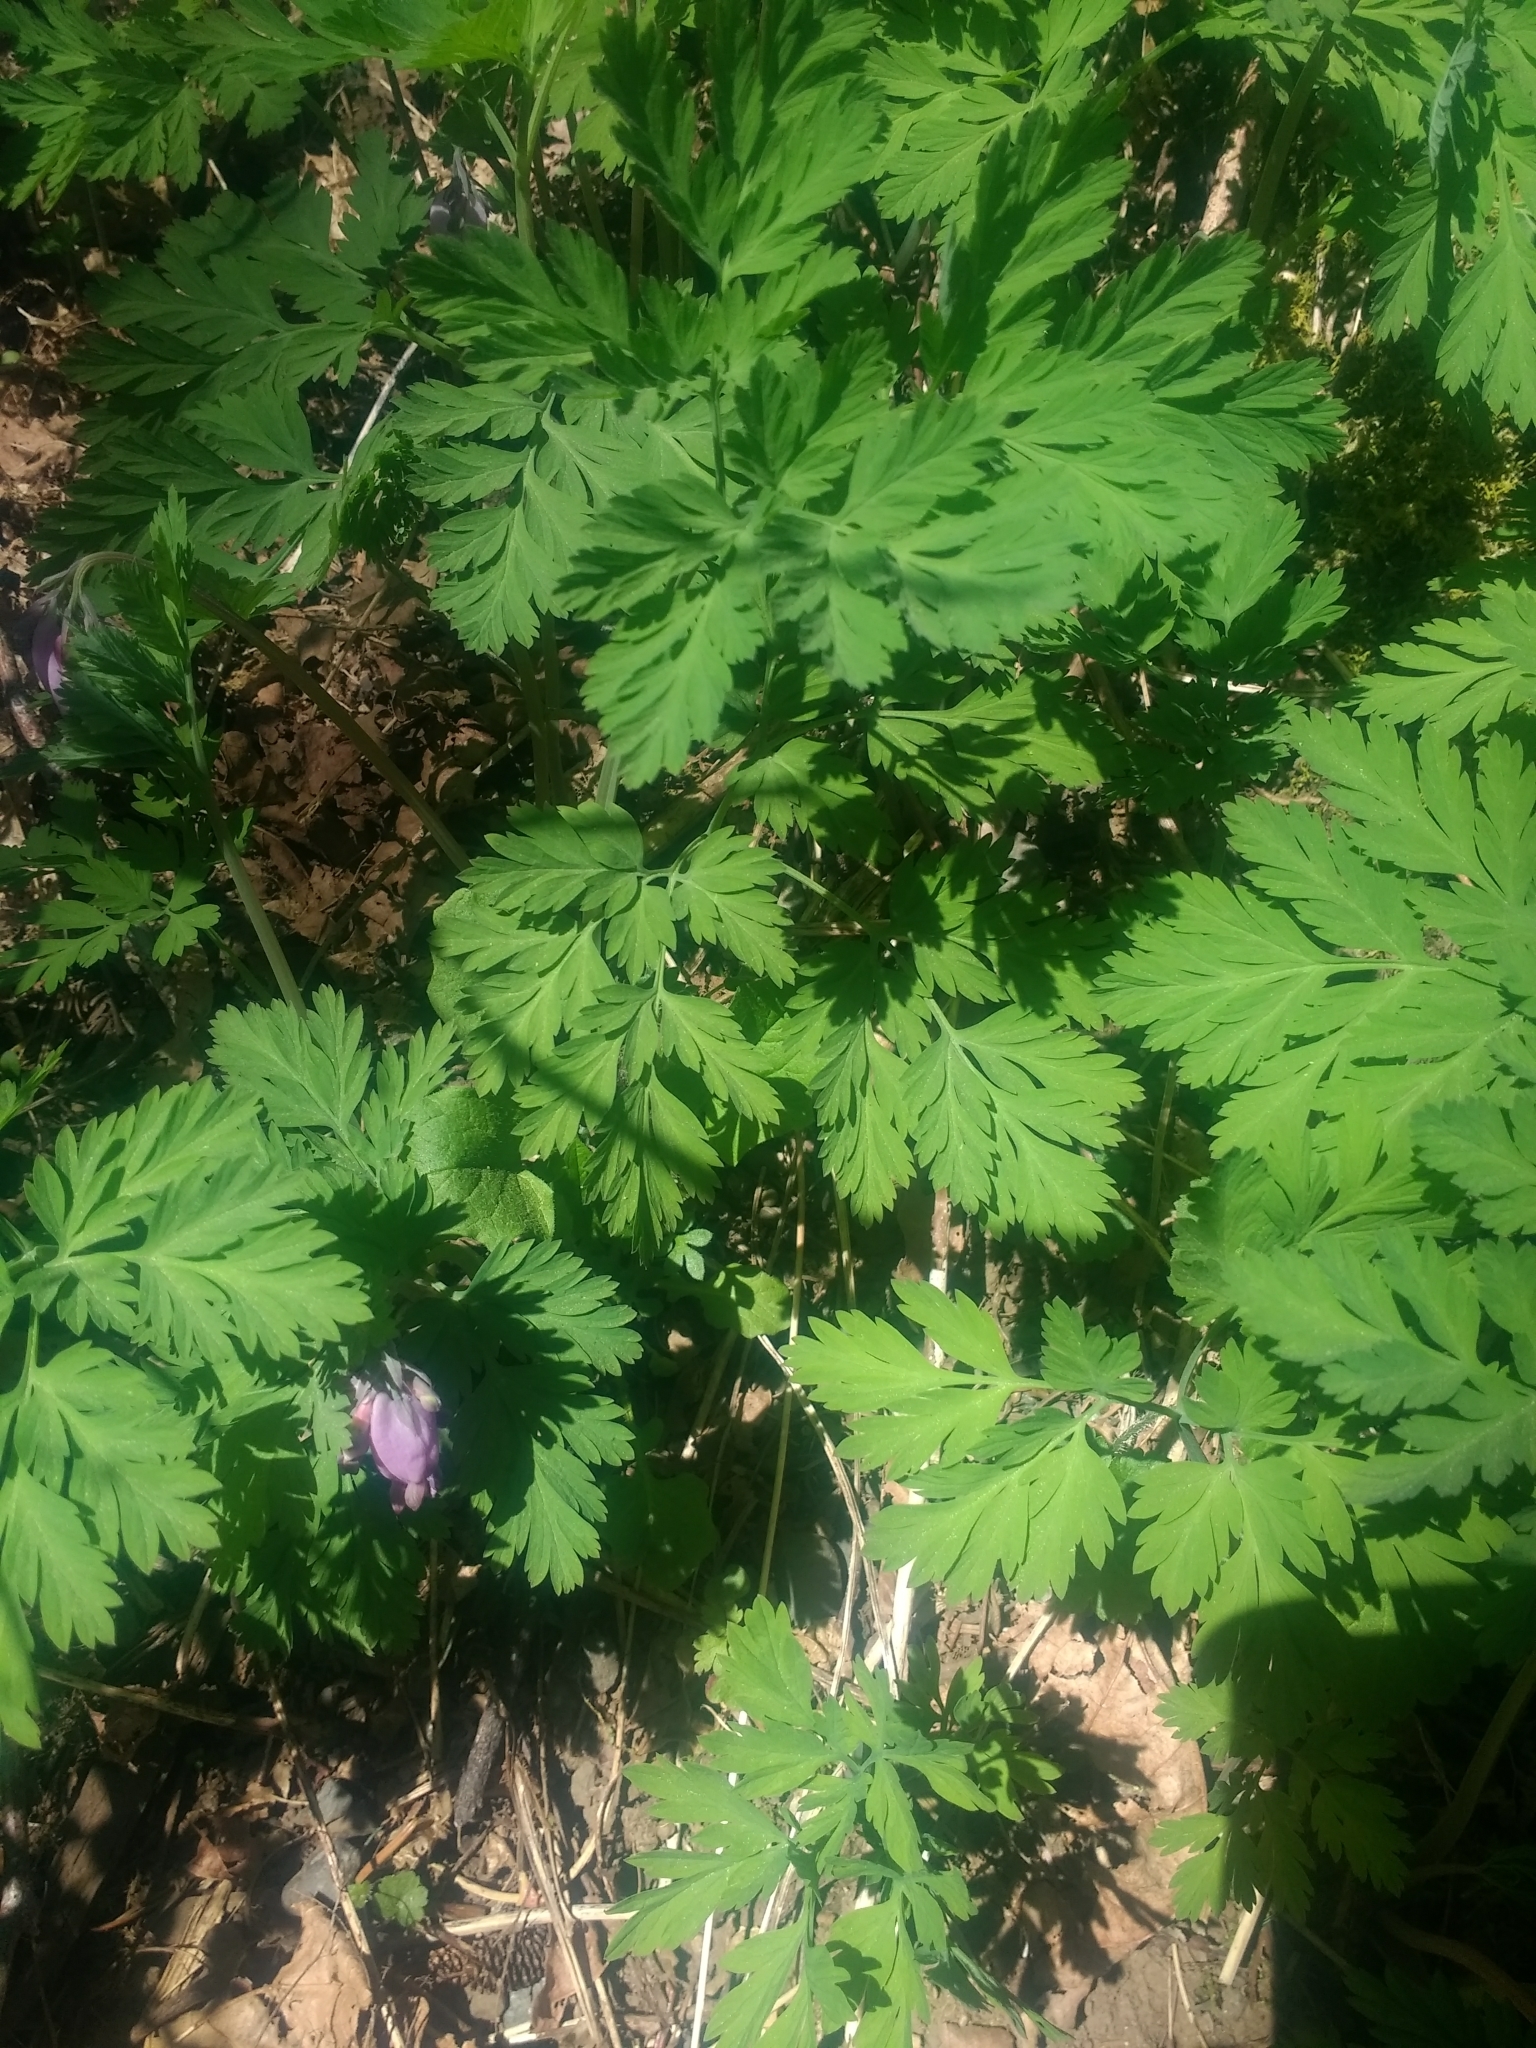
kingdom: Plantae
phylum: Tracheophyta
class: Magnoliopsida
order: Ranunculales
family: Papaveraceae
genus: Dicentra
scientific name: Dicentra formosa
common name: Bleeding-heart
